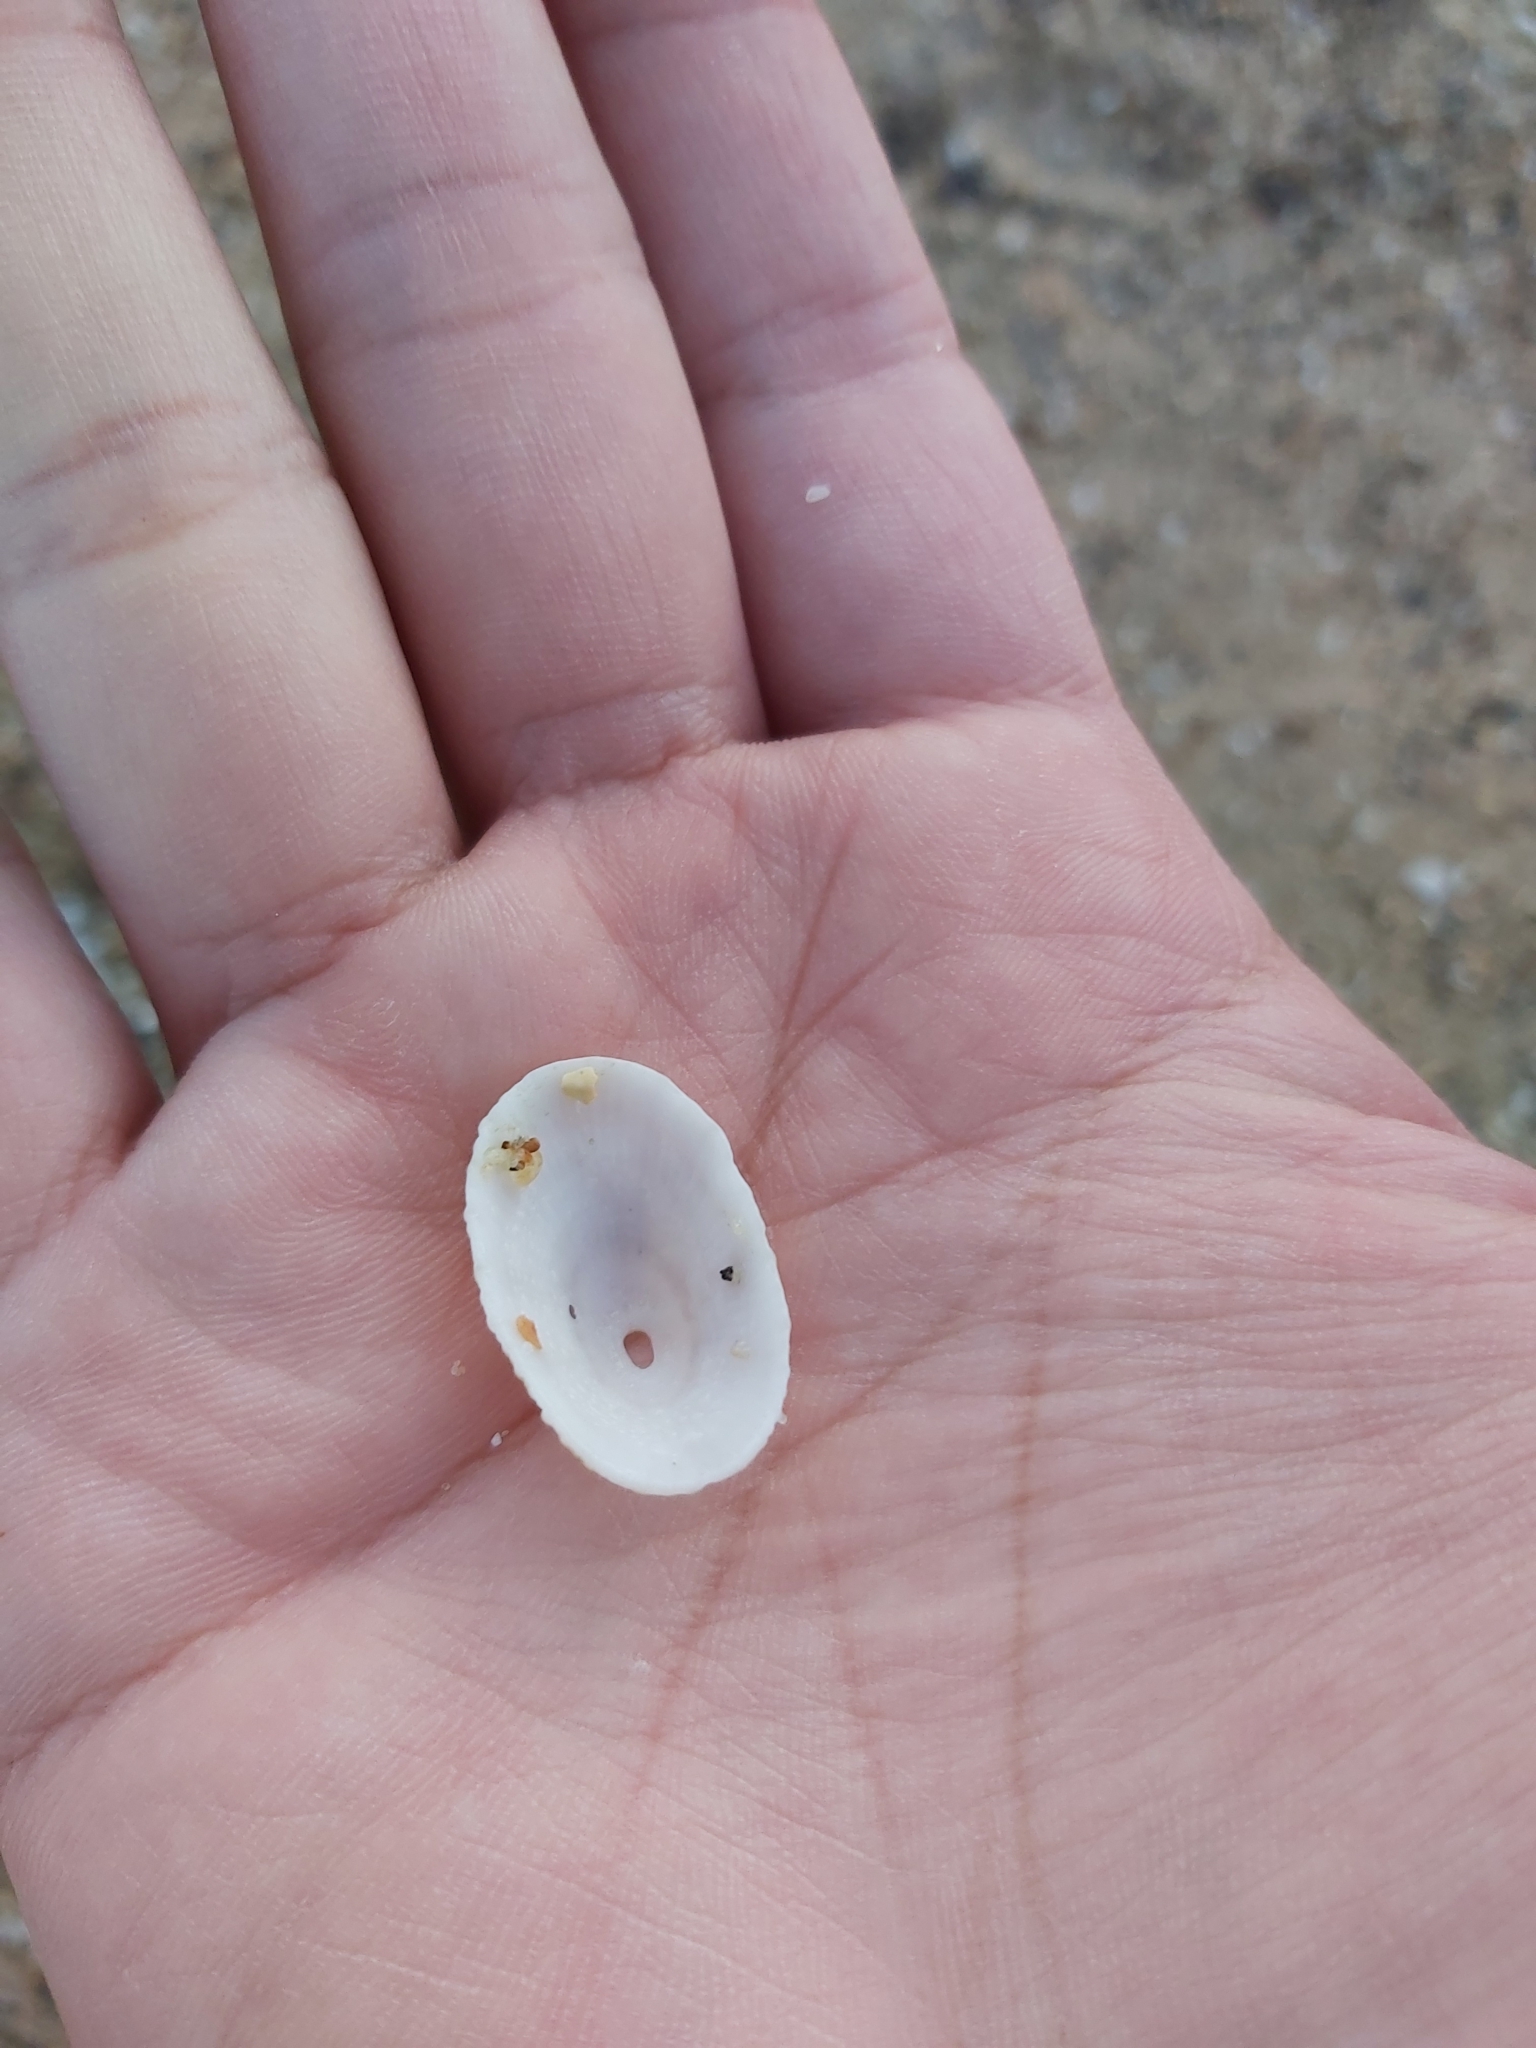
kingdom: Animalia
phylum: Mollusca
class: Gastropoda
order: Lepetellida
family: Fissurellidae
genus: Diodora
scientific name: Diodora lineata
